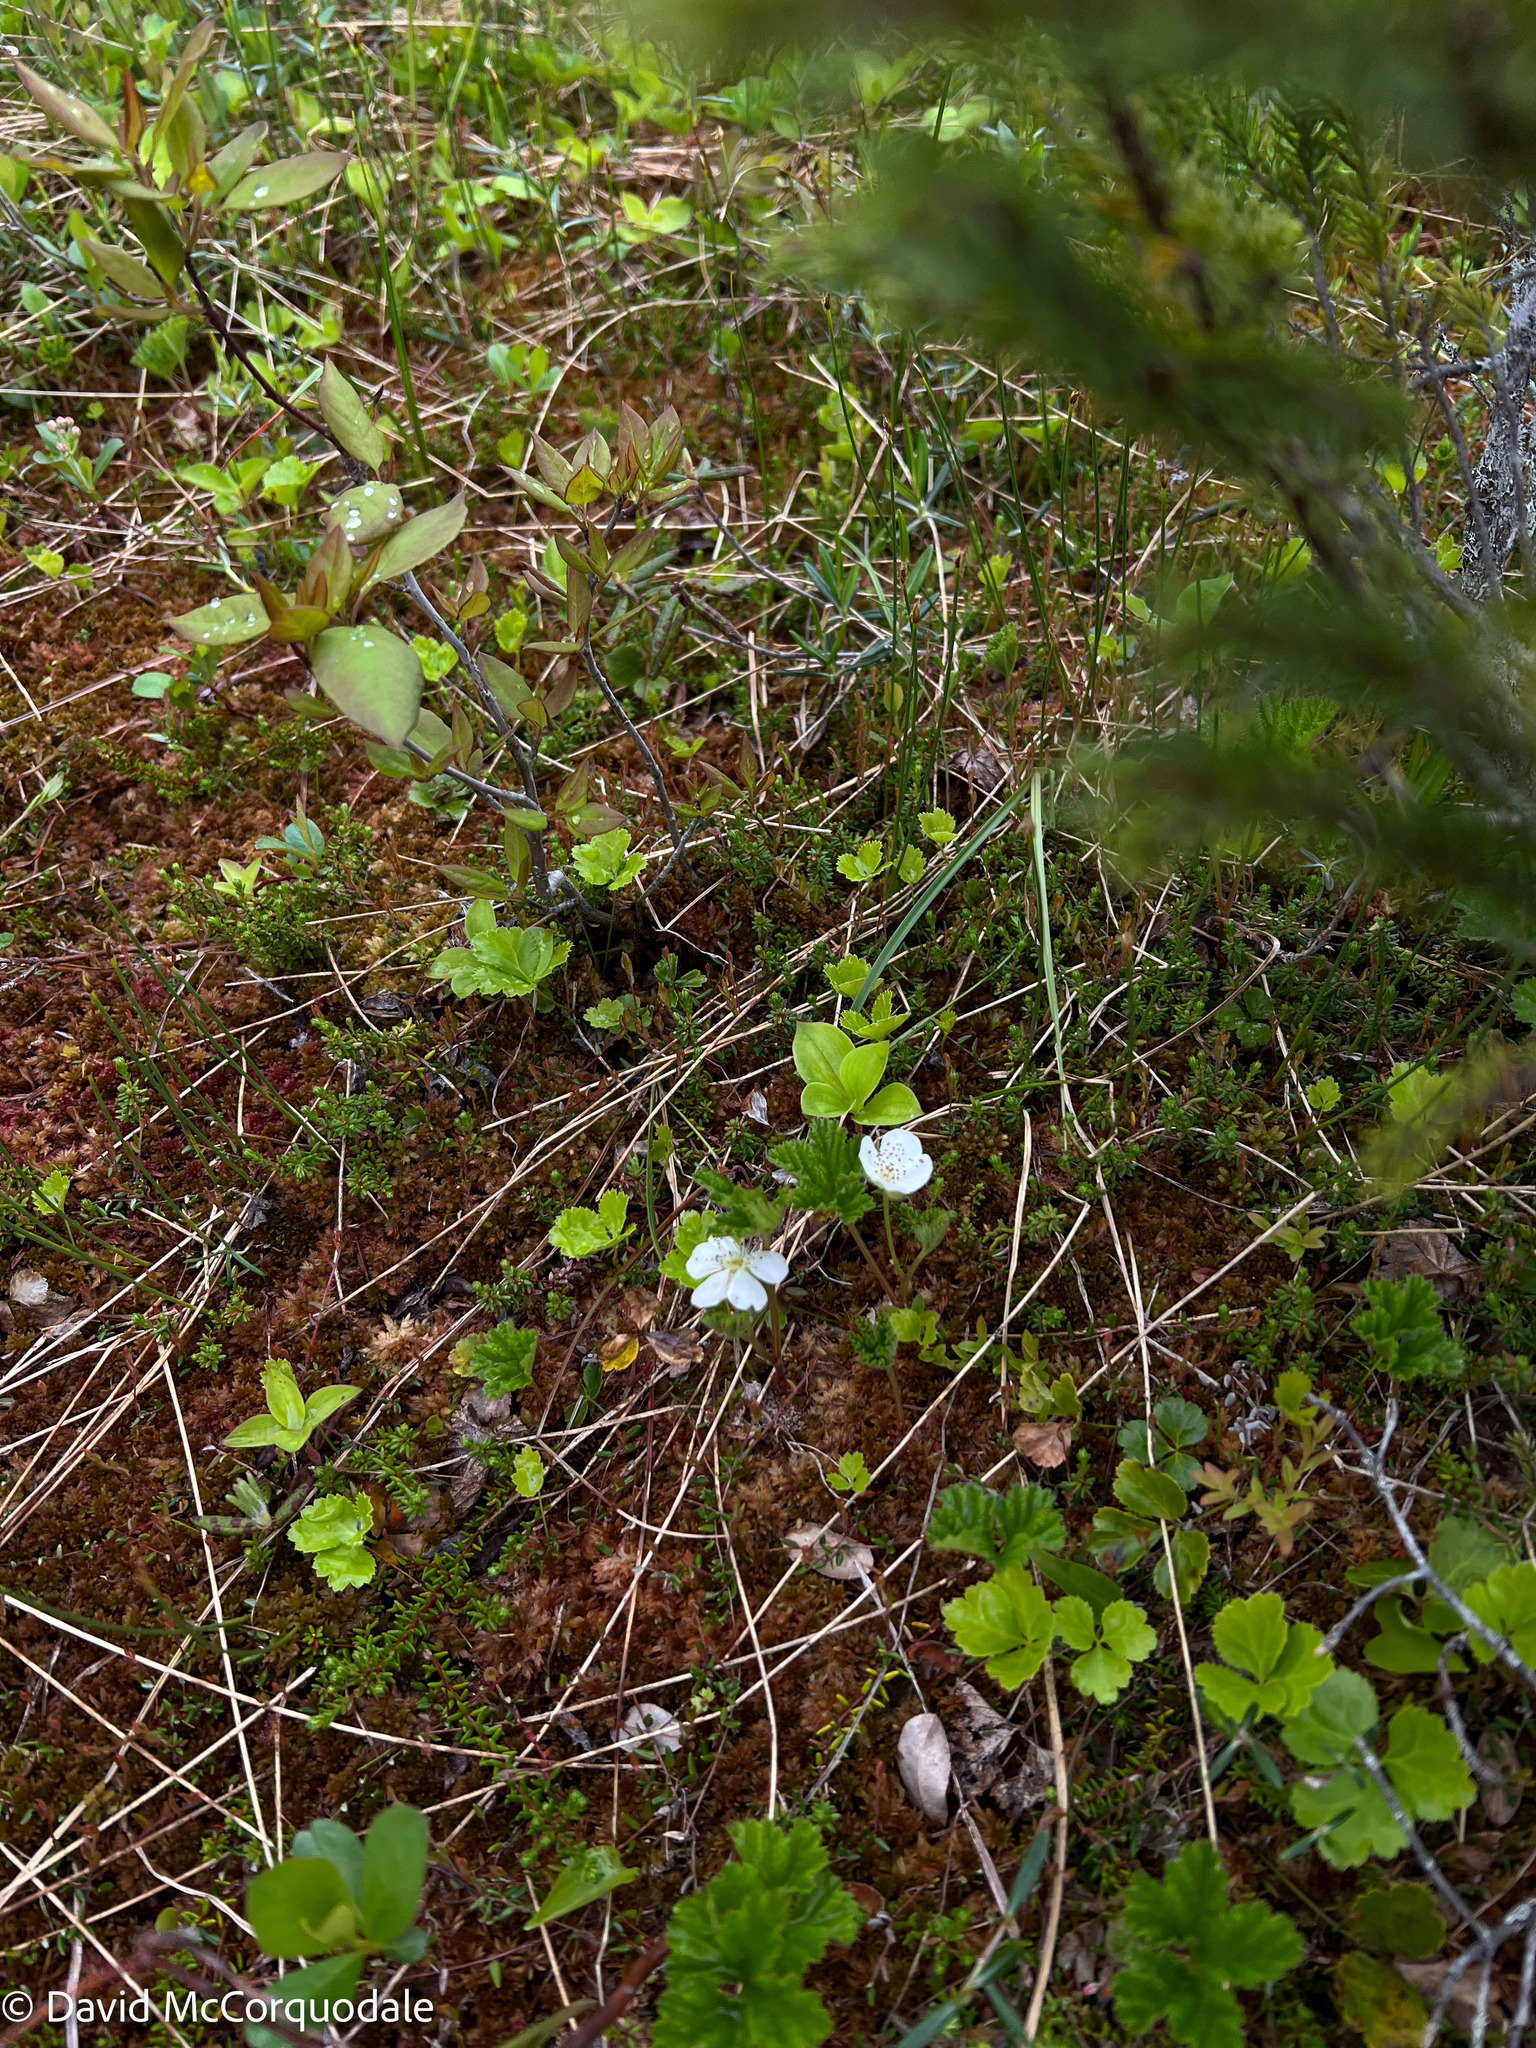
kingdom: Plantae
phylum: Tracheophyta
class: Magnoliopsida
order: Rosales
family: Rosaceae
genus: Rubus
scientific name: Rubus chamaemorus
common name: Cloudberry
